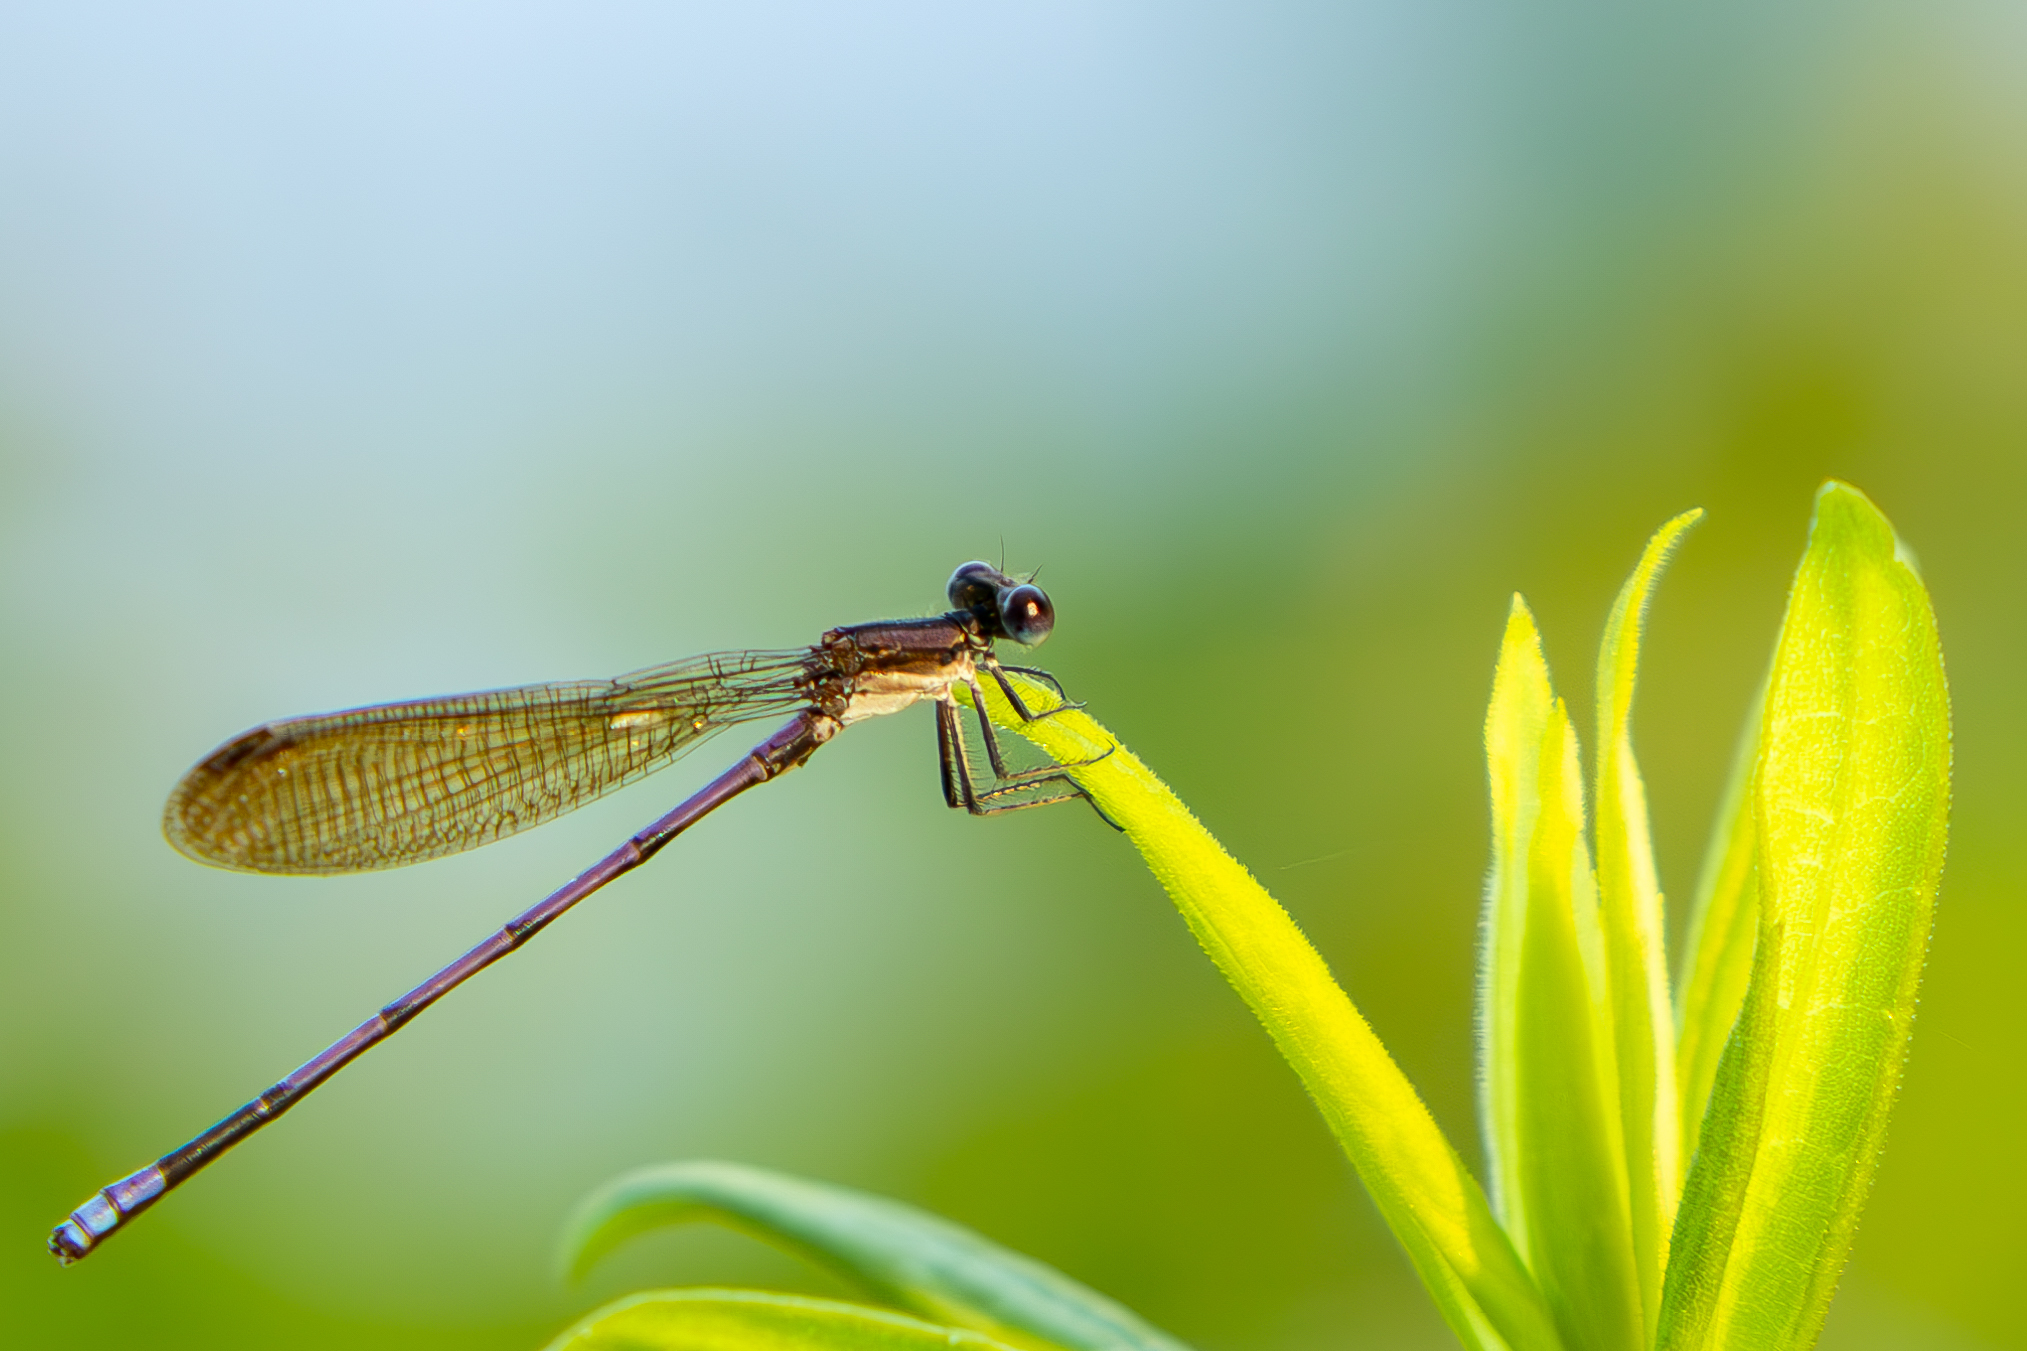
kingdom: Animalia
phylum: Arthropoda
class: Insecta
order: Odonata
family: Coenagrionidae
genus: Argia
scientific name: Argia fumipennis
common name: Variable dancer
